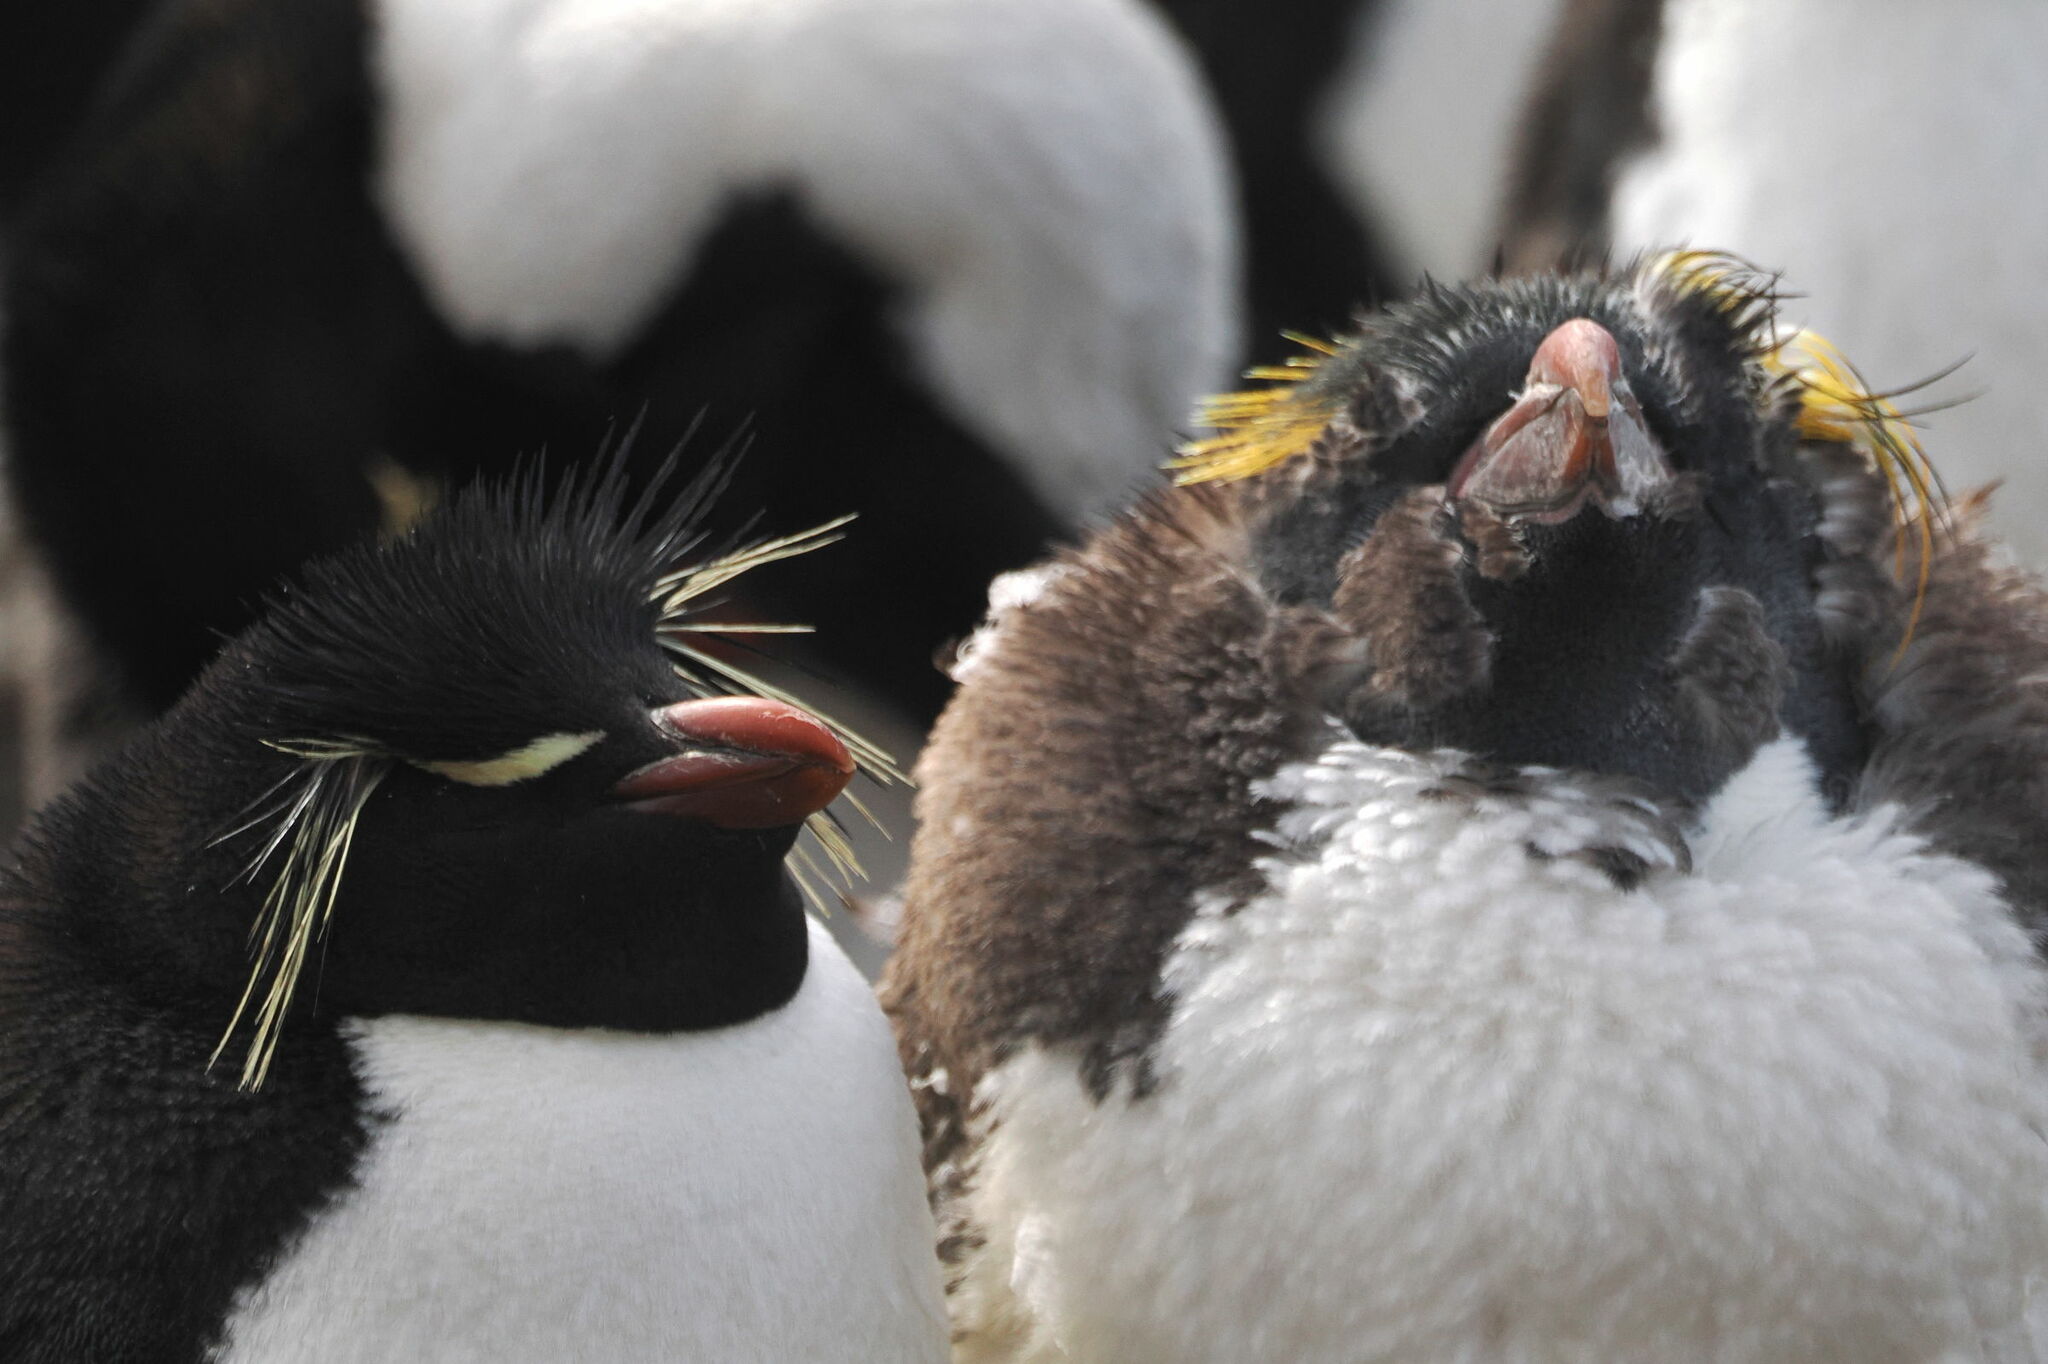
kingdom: Animalia
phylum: Chordata
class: Aves
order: Sphenisciformes
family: Spheniscidae
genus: Eudyptes
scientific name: Eudyptes chrysolophus
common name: Macaroni penguin
